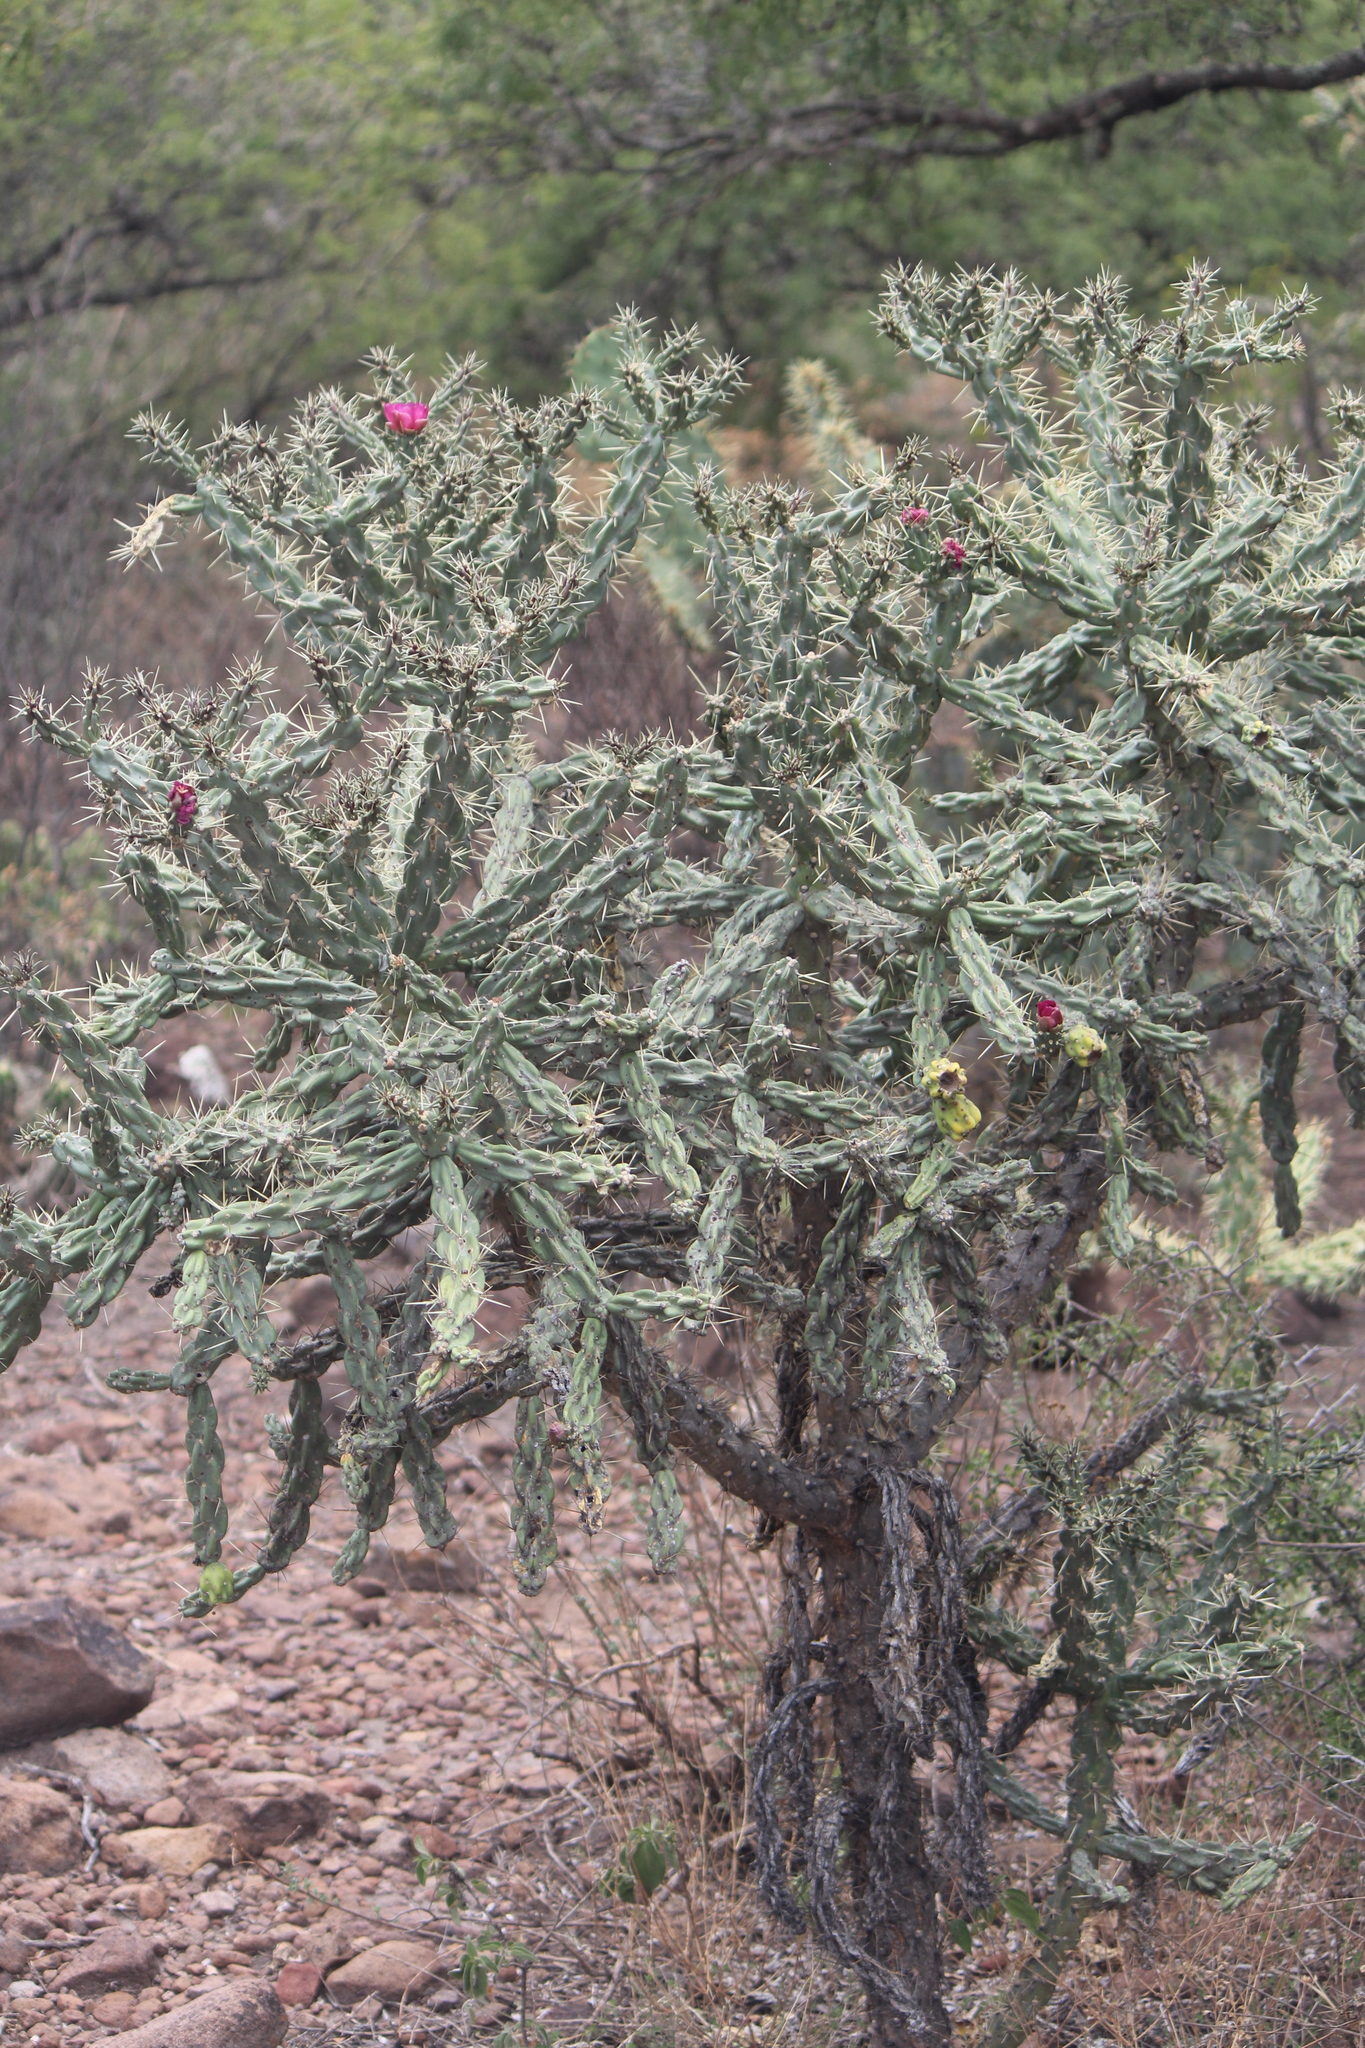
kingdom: Plantae
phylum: Tracheophyta
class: Magnoliopsida
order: Caryophyllales
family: Cactaceae
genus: Cylindropuntia
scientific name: Cylindropuntia imbricata
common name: Candelabrum cactus
